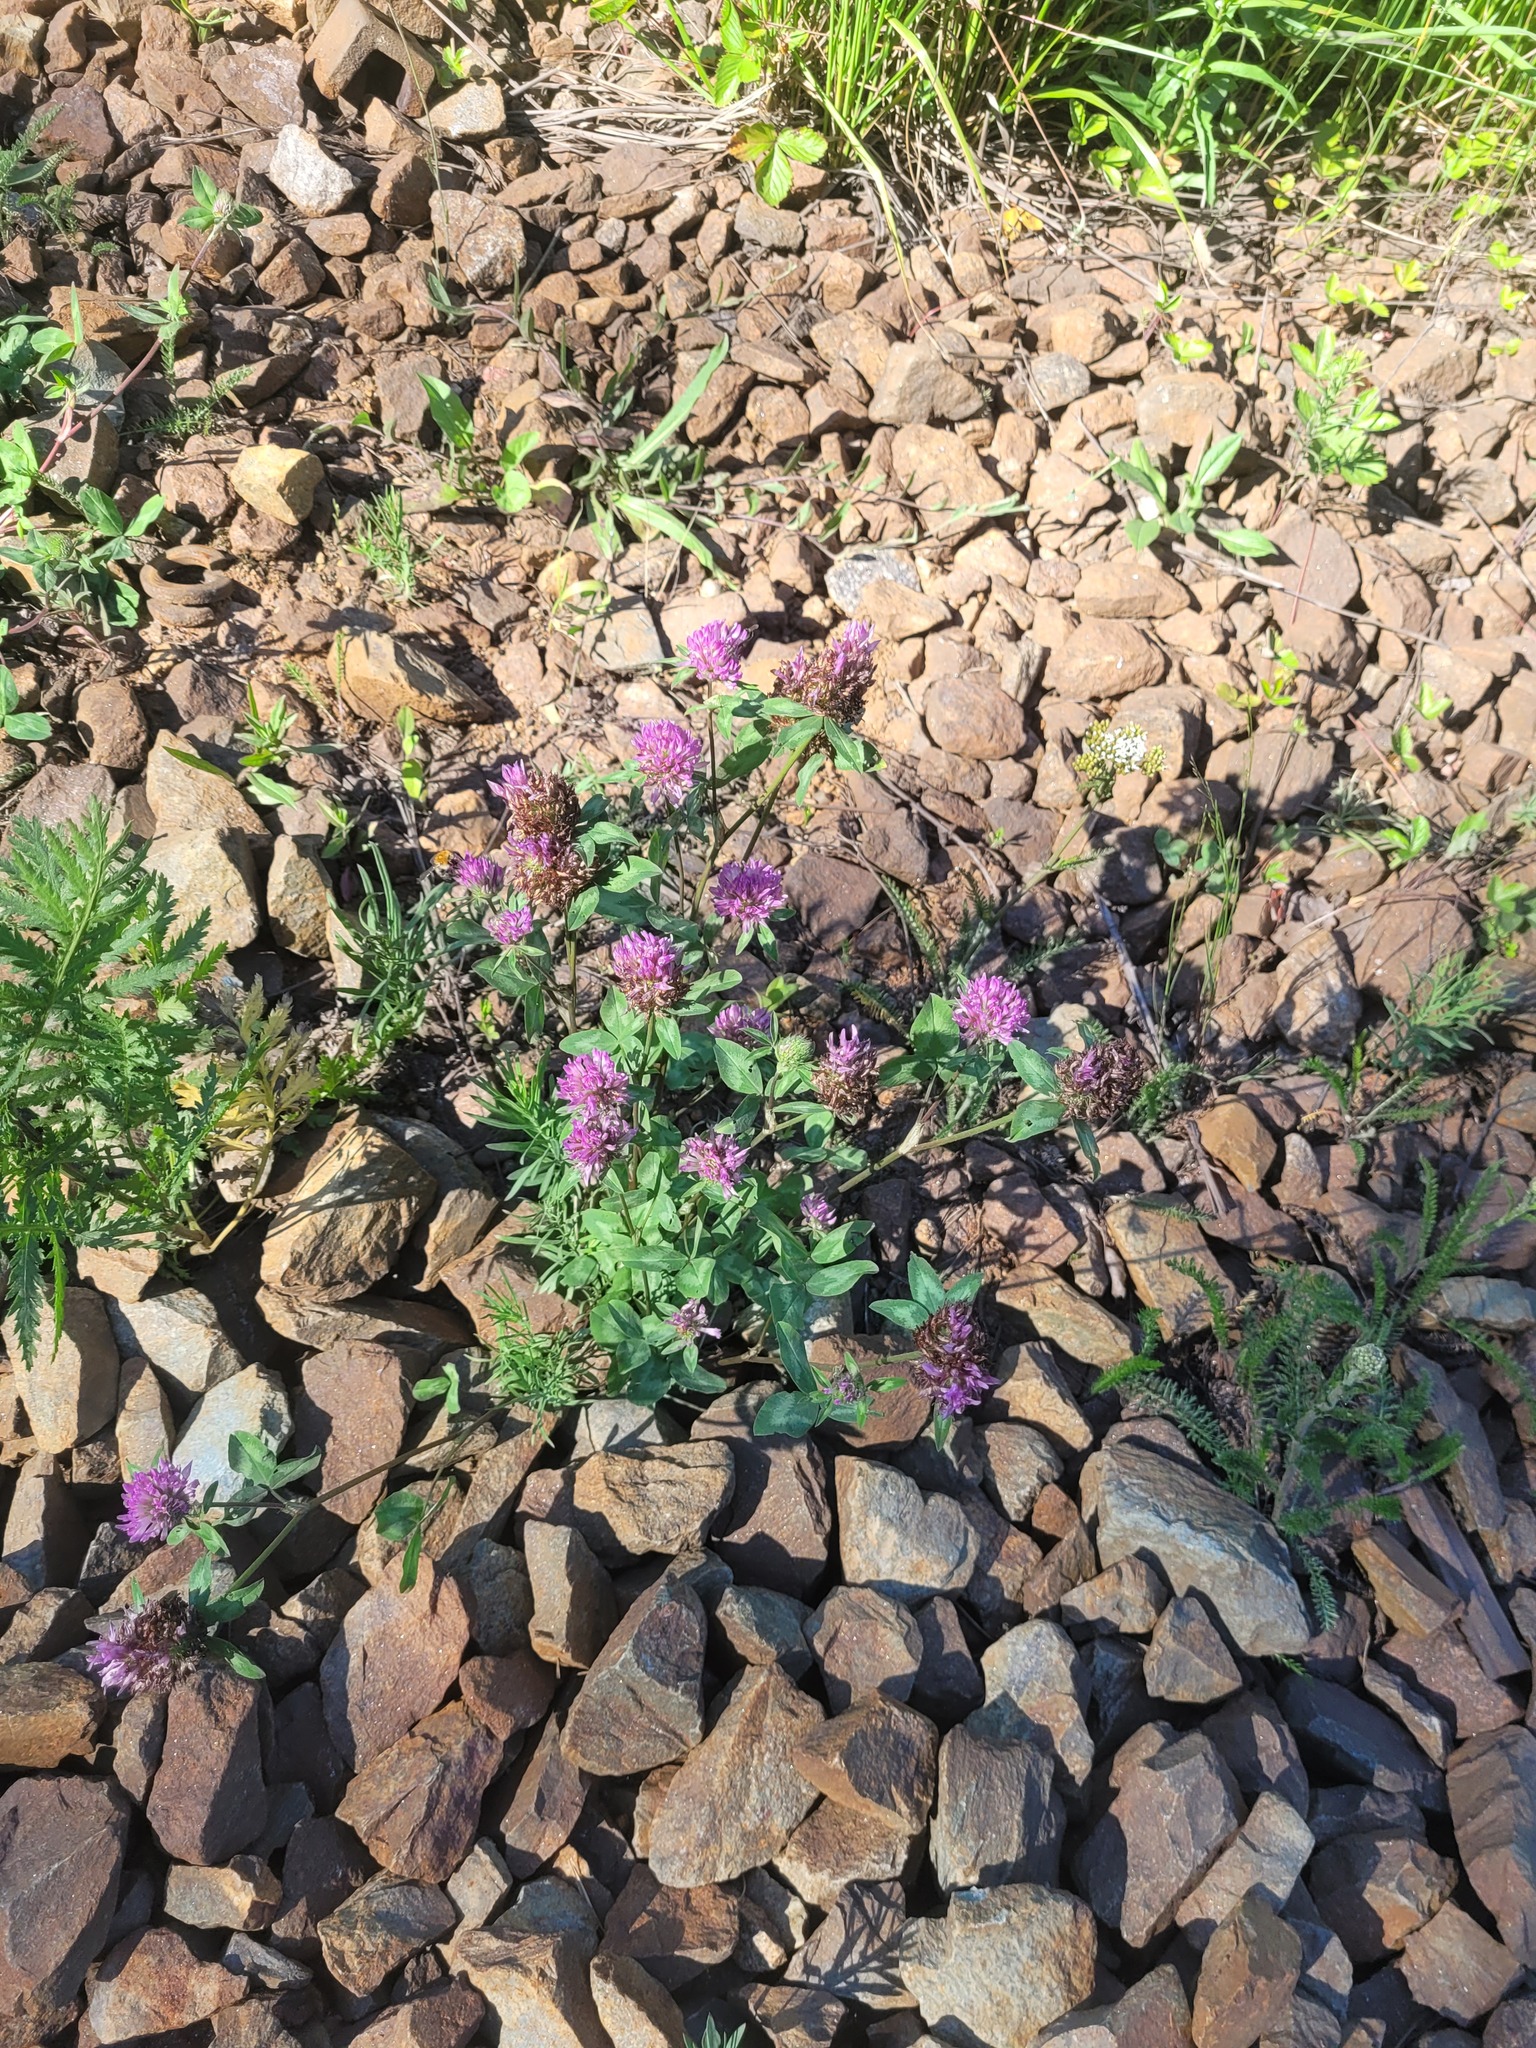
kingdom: Plantae
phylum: Tracheophyta
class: Magnoliopsida
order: Fabales
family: Fabaceae
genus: Trifolium
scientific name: Trifolium pratense
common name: Red clover
